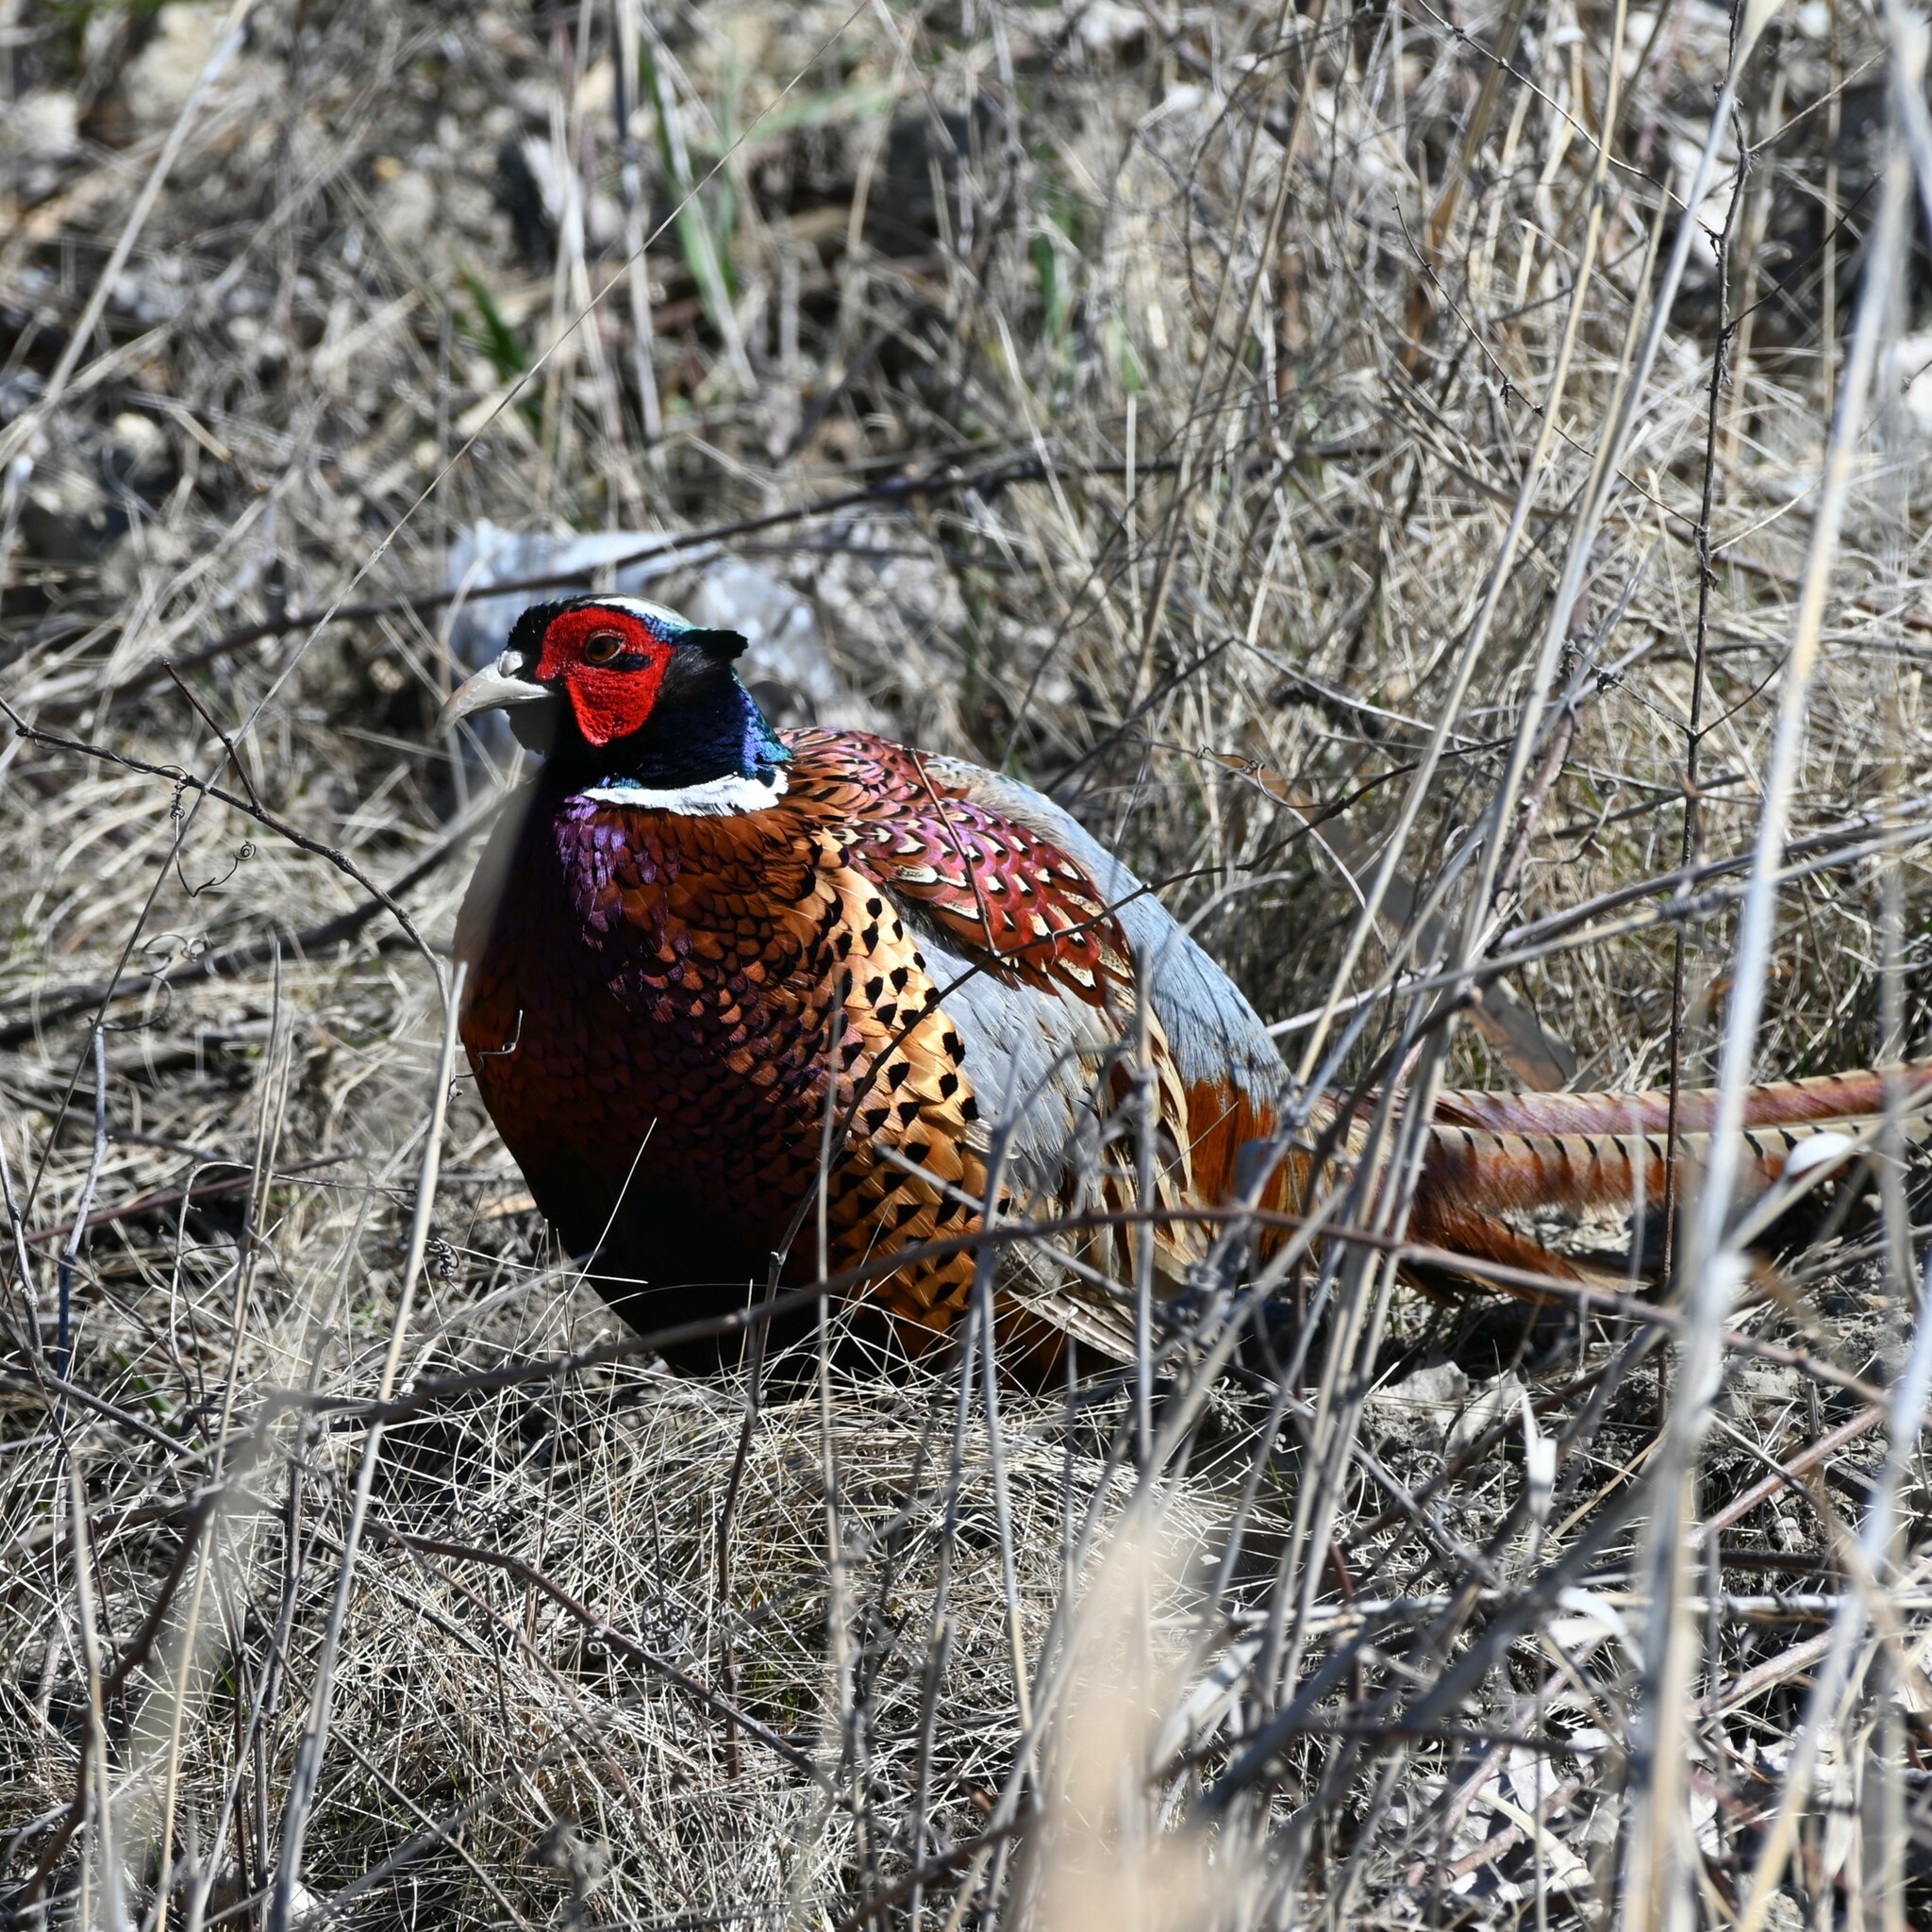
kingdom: Animalia
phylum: Chordata
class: Aves
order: Galliformes
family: Phasianidae
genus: Phasianus
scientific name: Phasianus colchicus
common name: Common pheasant
